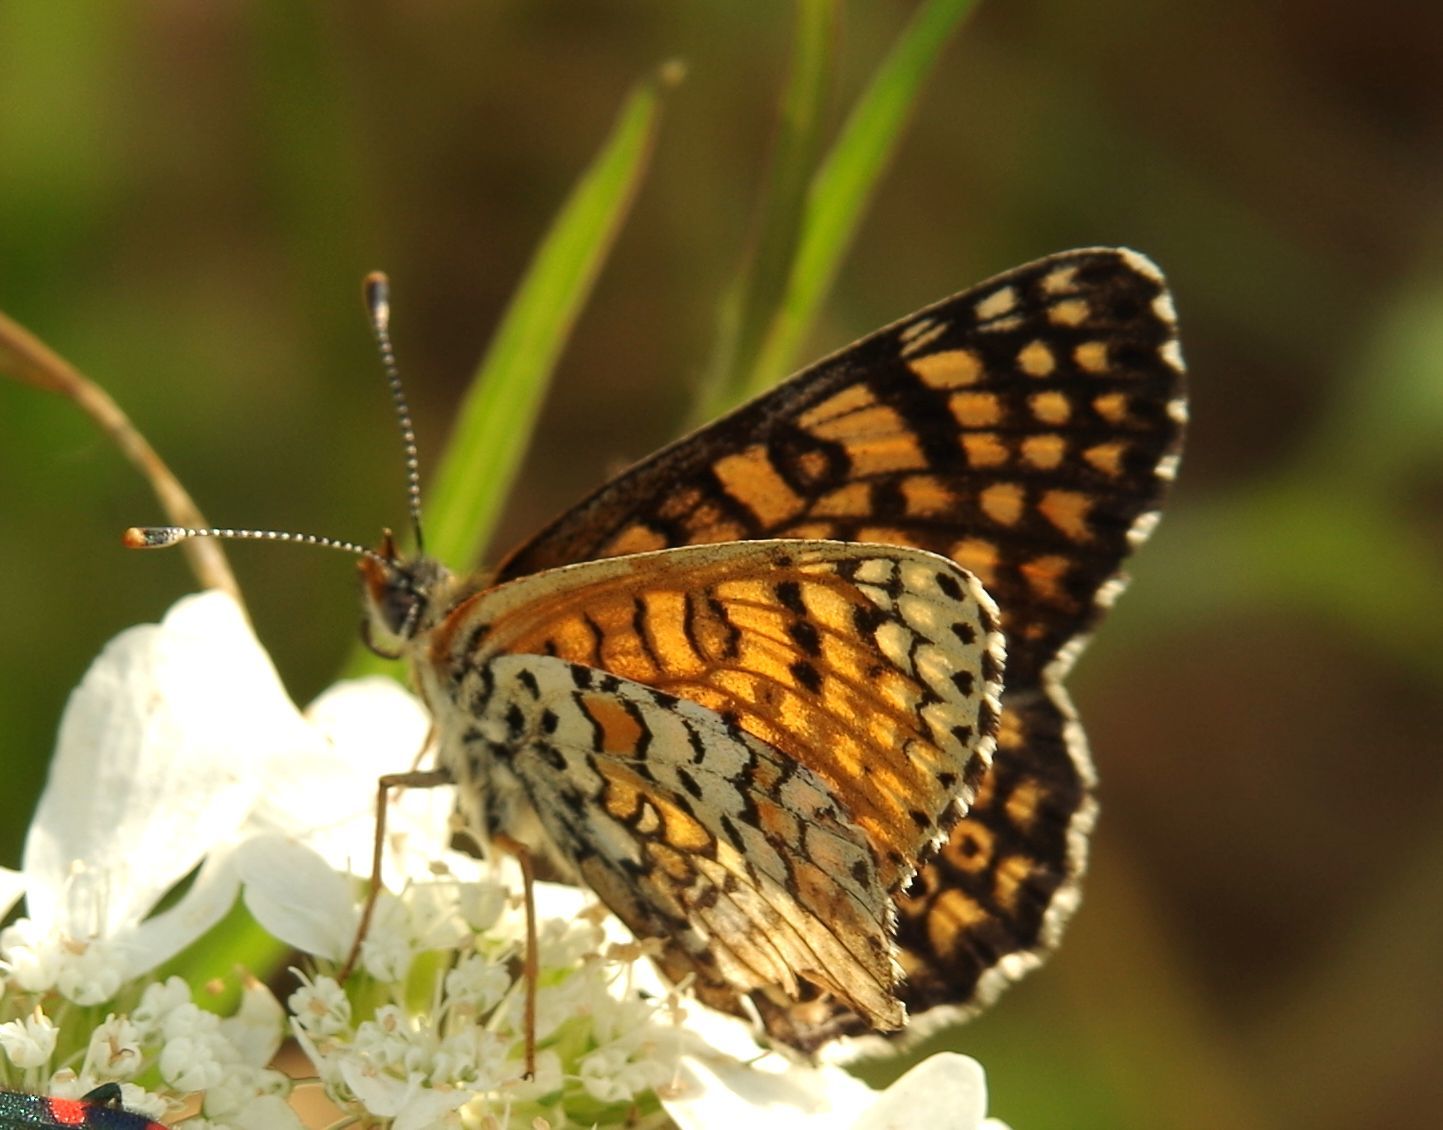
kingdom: Animalia
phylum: Arthropoda
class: Insecta
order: Lepidoptera
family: Nymphalidae
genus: Melitaea
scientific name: Melitaea cinxia
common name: Glanville fritillary
